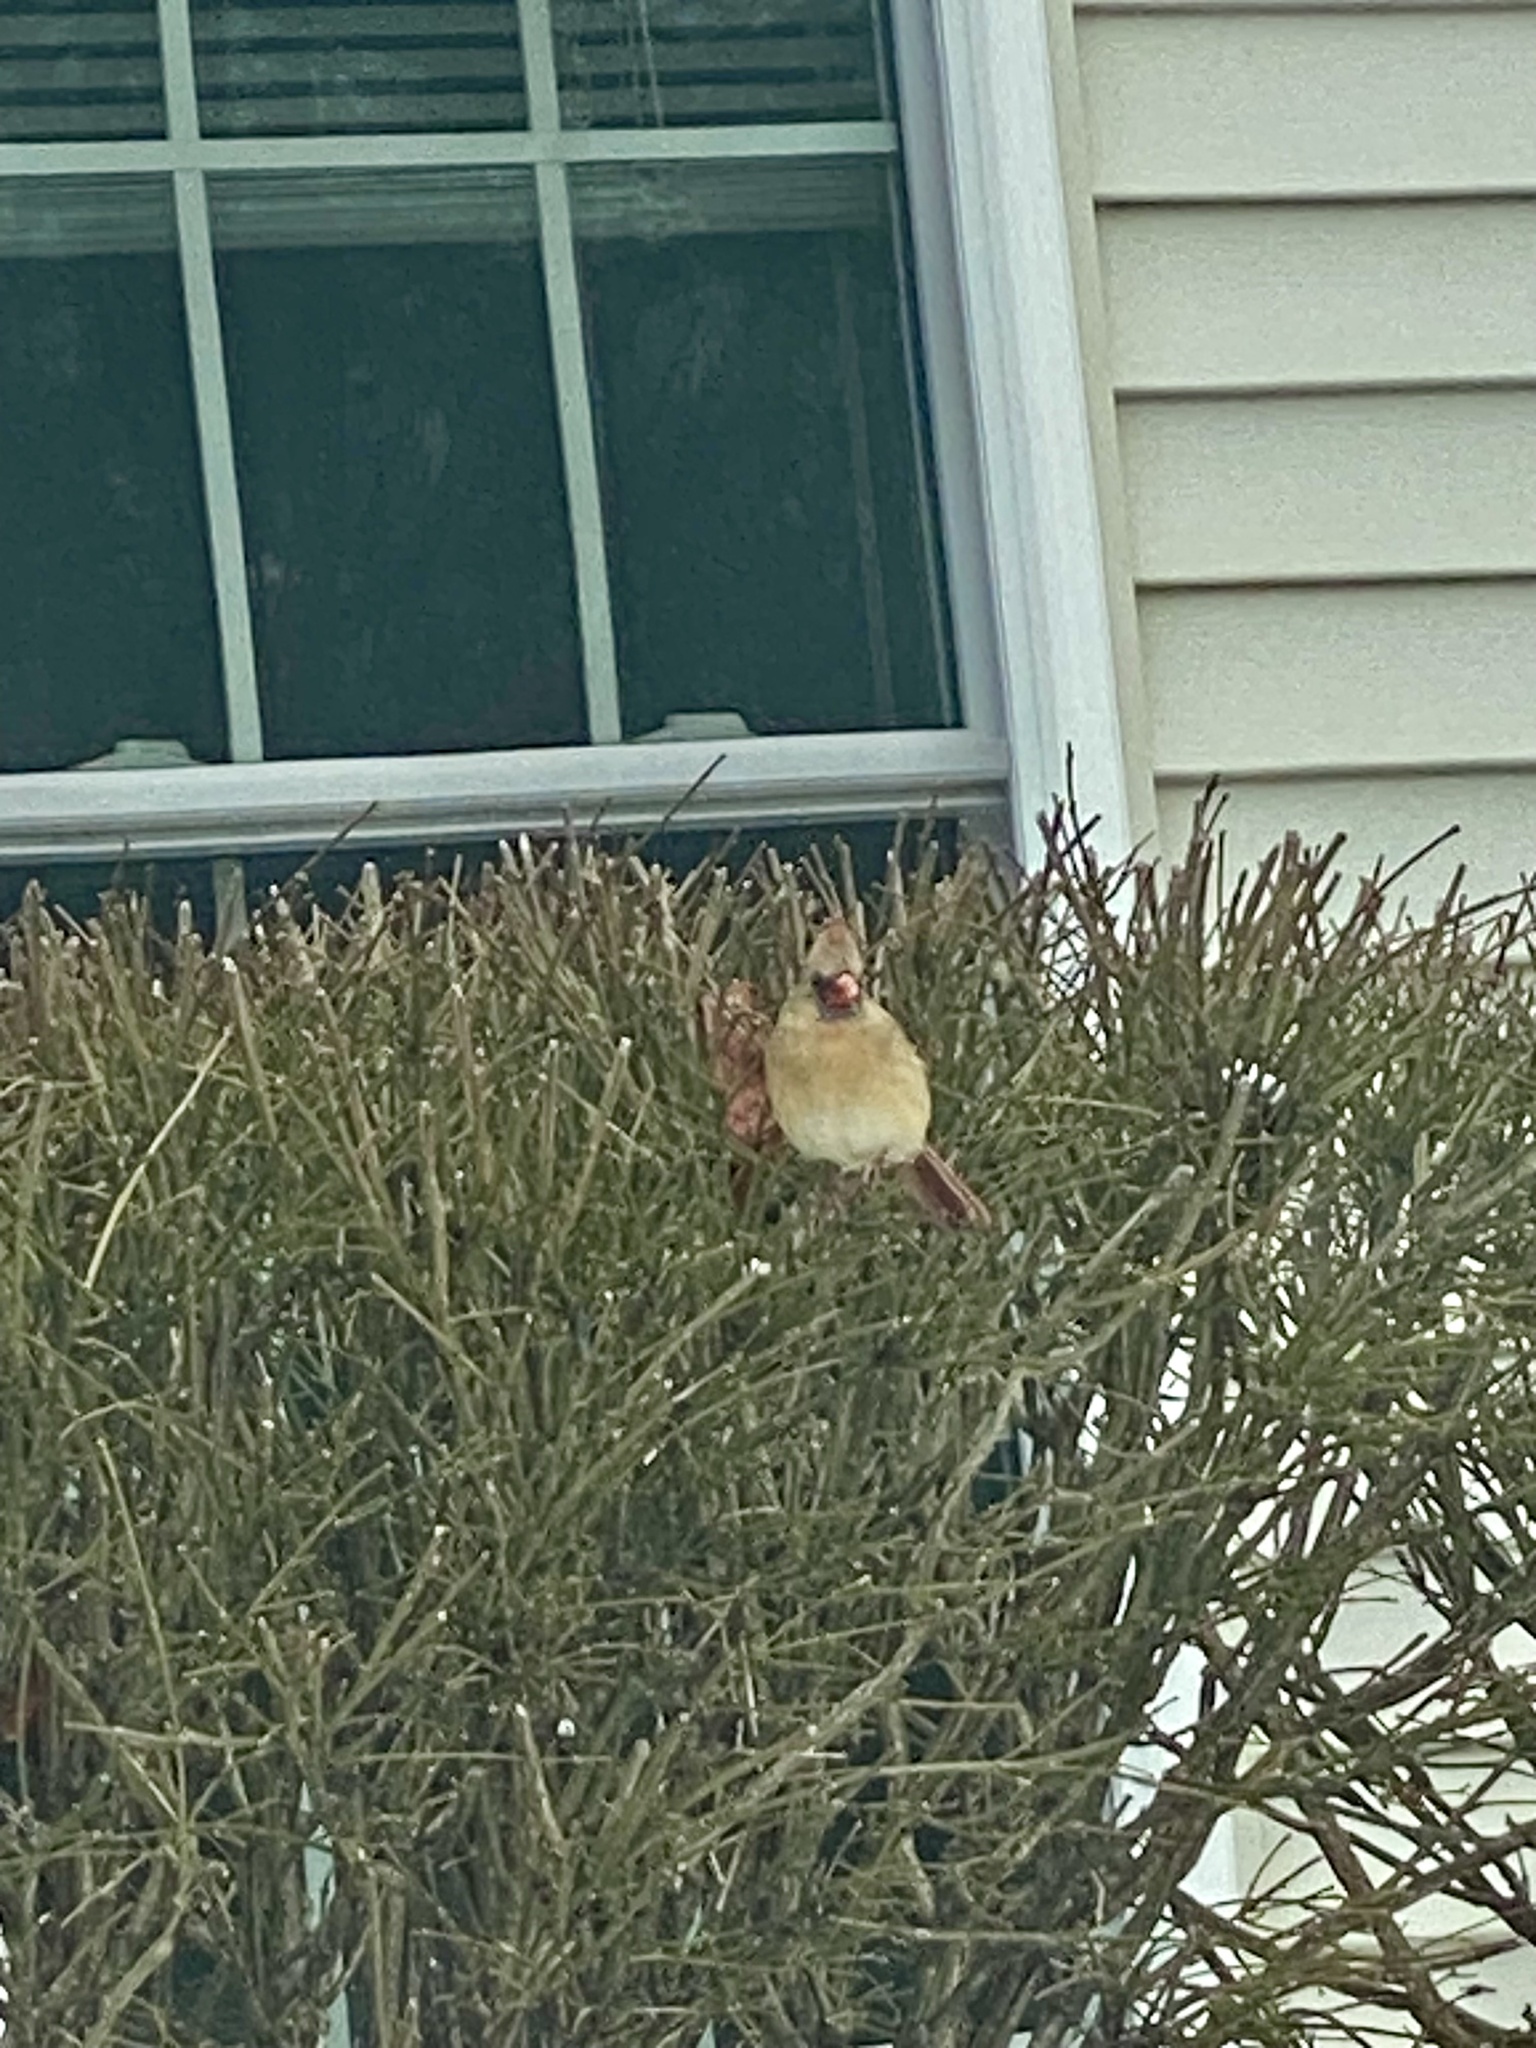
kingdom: Animalia
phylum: Chordata
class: Aves
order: Passeriformes
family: Cardinalidae
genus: Cardinalis
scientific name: Cardinalis cardinalis
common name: Northern cardinal
